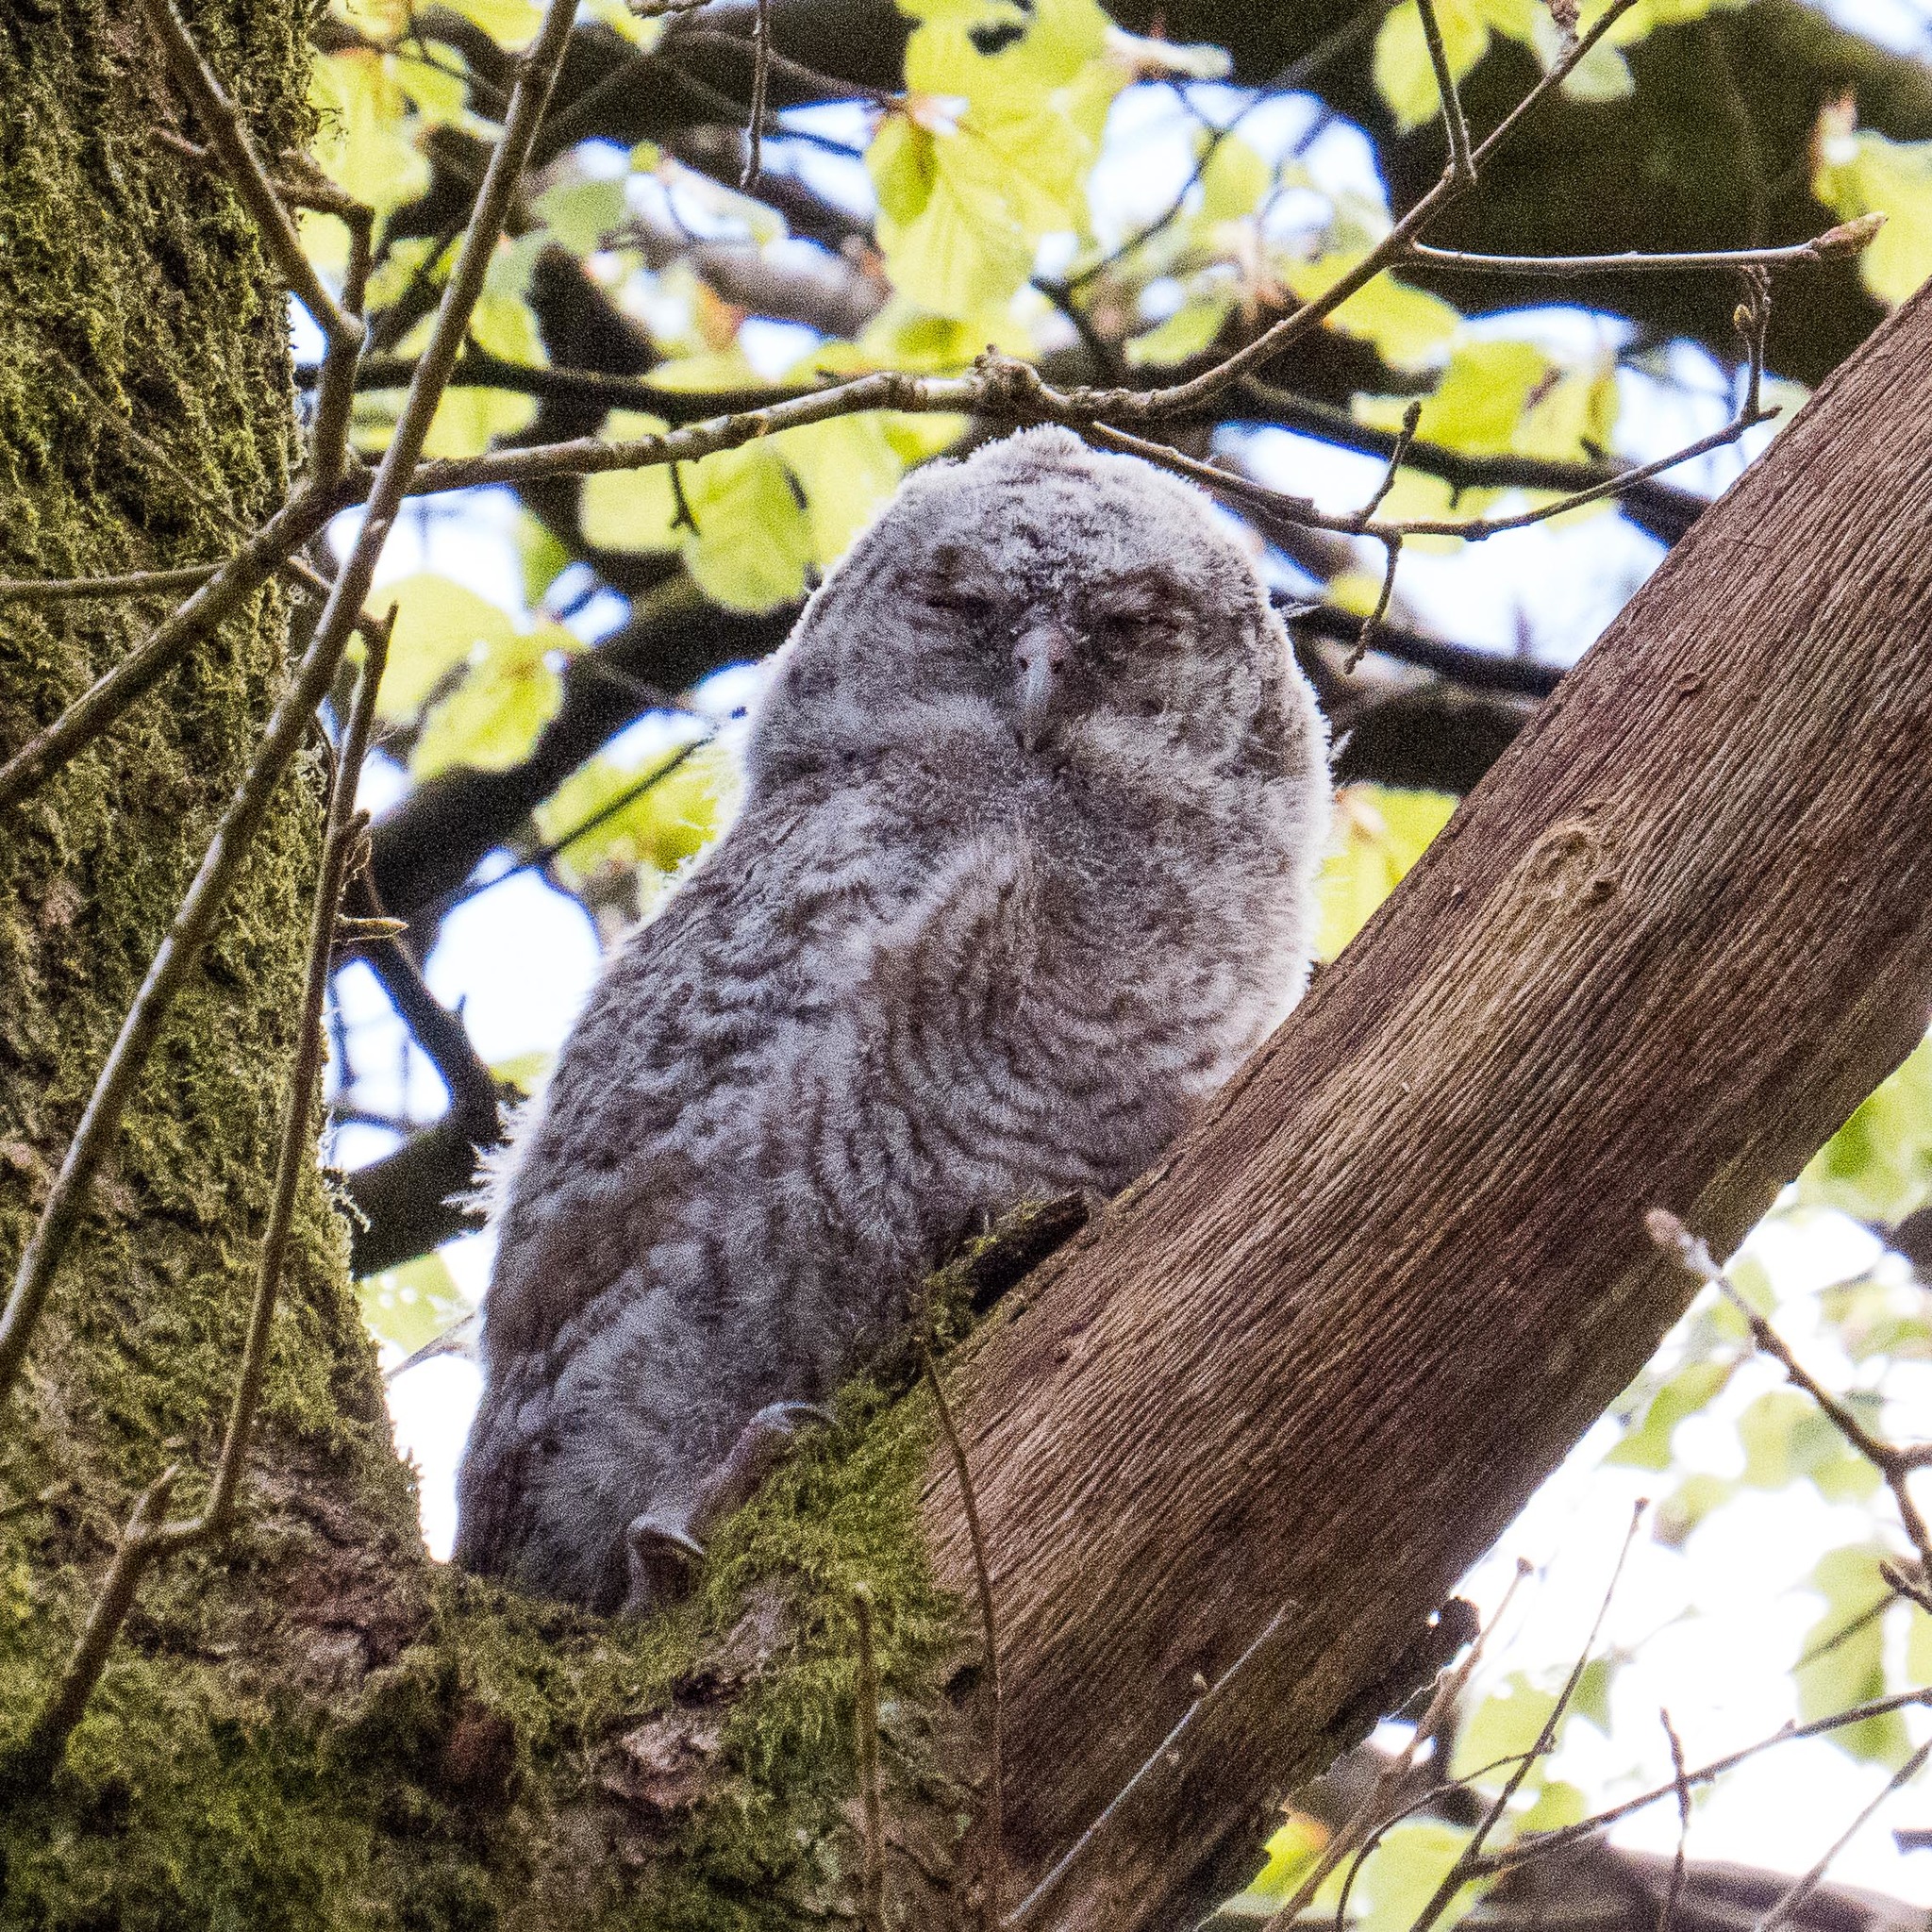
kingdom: Animalia
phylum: Chordata
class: Aves
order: Strigiformes
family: Strigidae
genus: Strix
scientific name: Strix aluco
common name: Tawny owl
